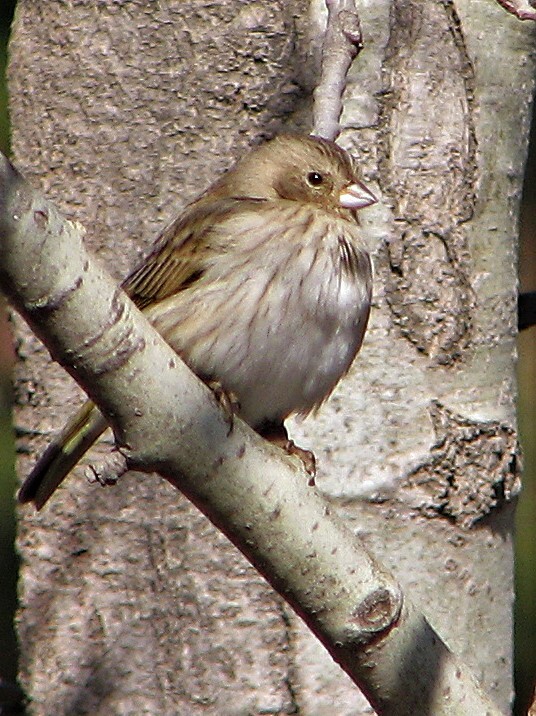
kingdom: Animalia
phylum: Chordata
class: Aves
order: Passeriformes
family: Thraupidae
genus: Sicalis
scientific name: Sicalis flaveola
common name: Saffron finch
